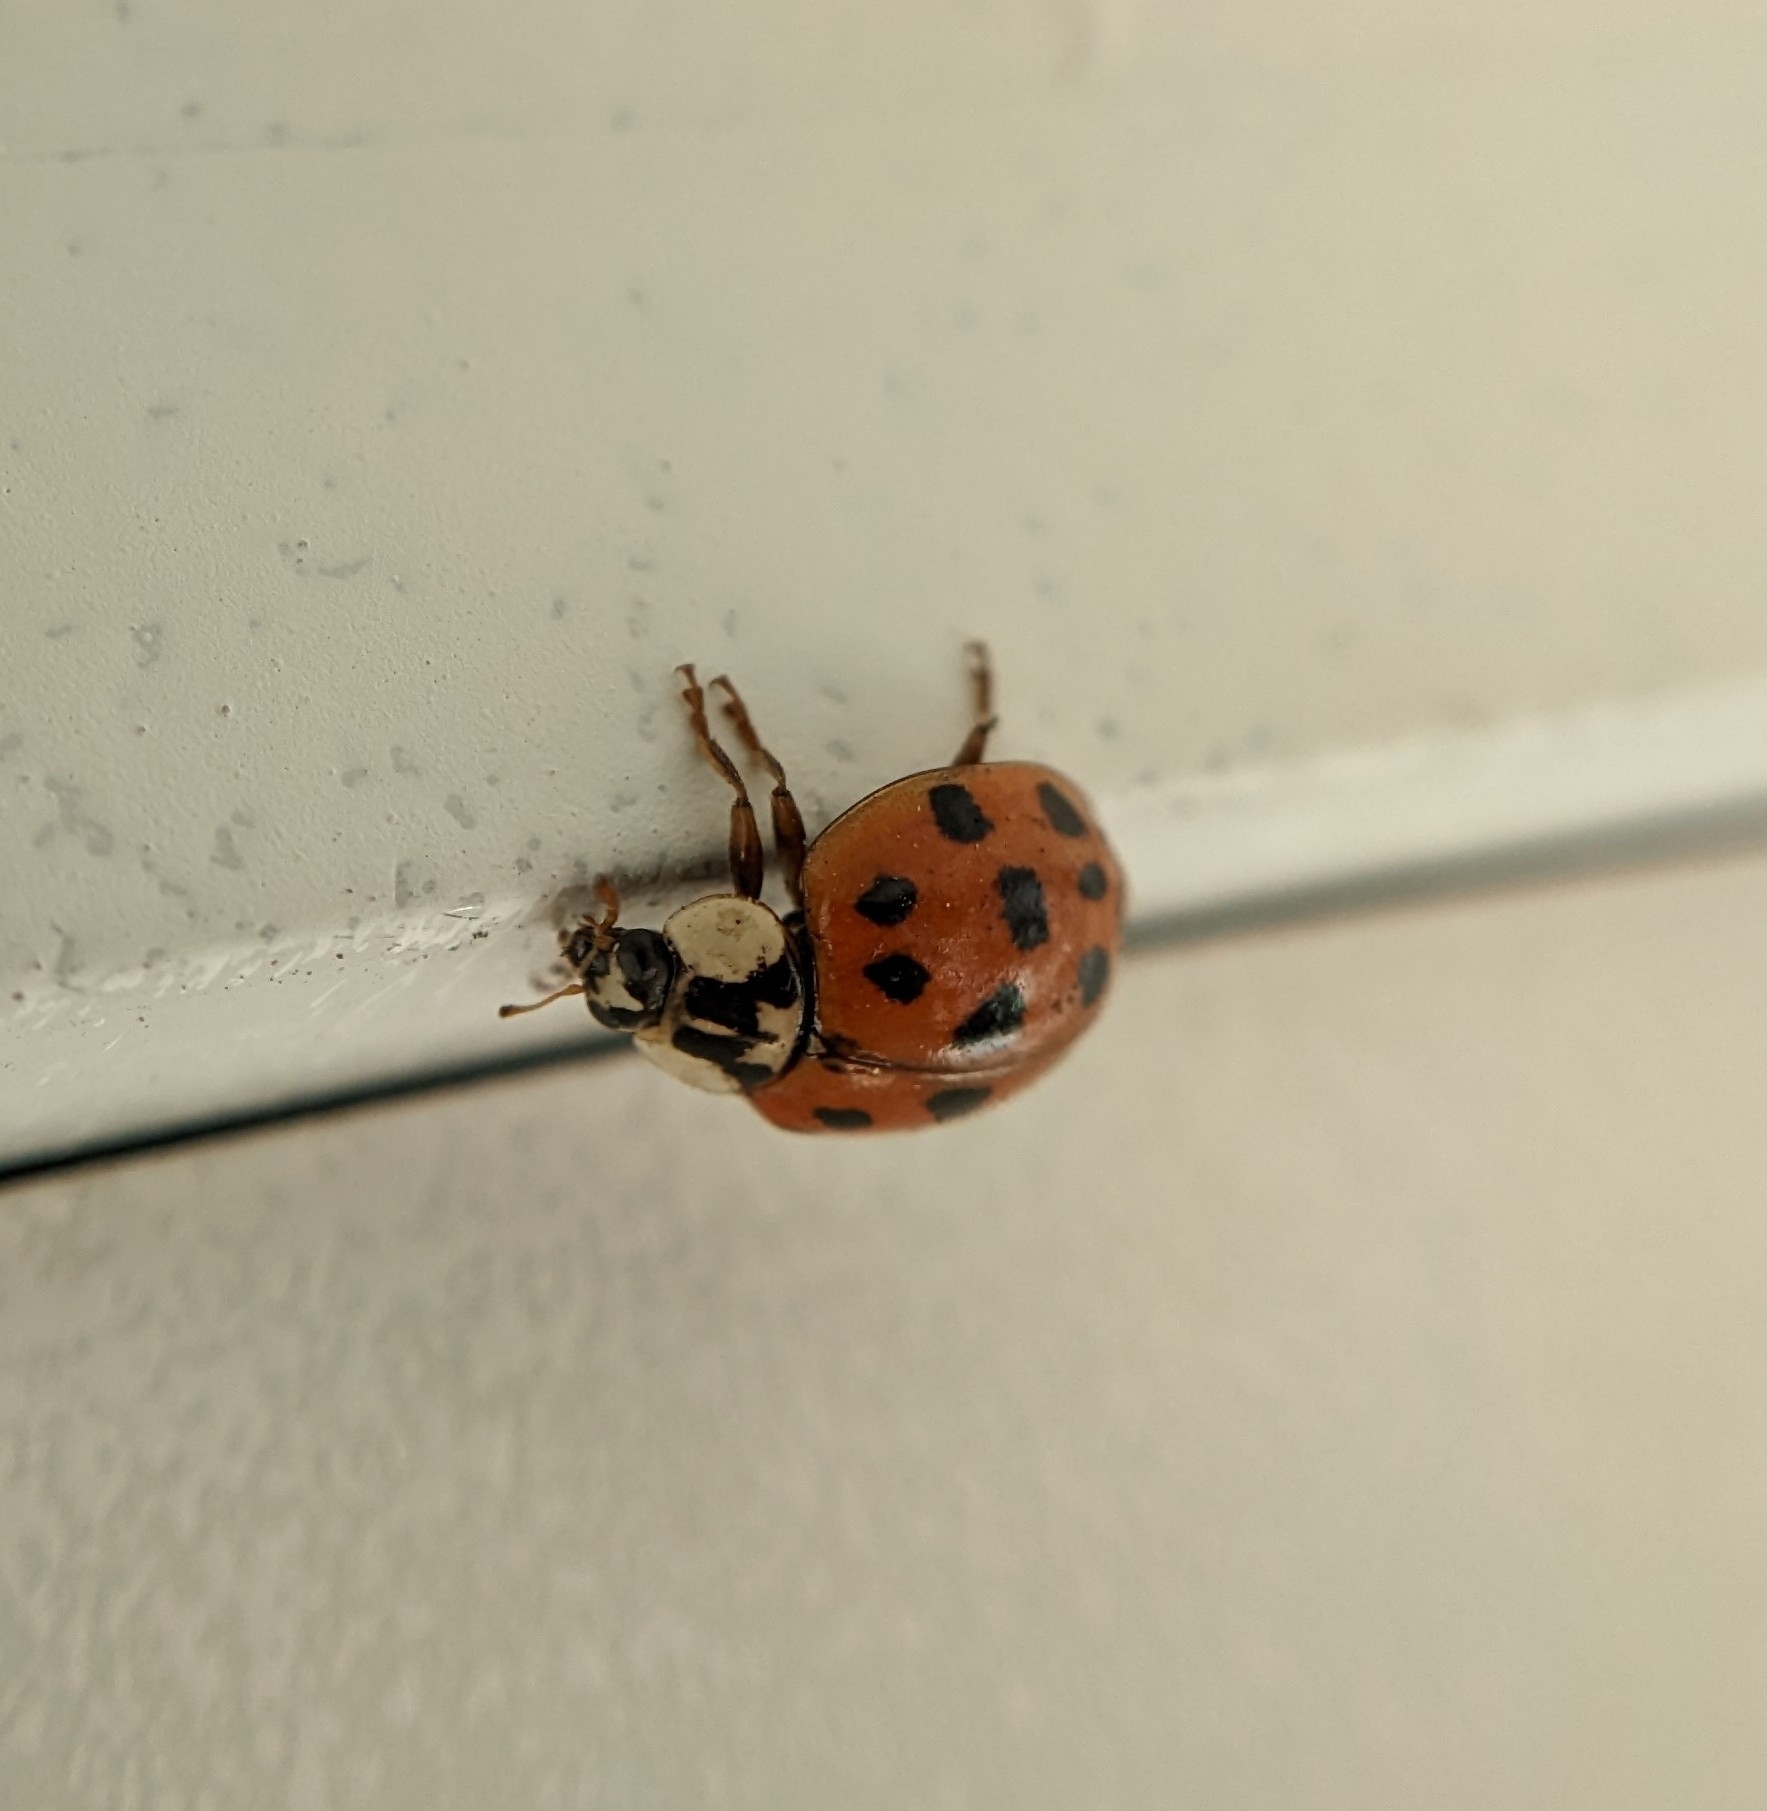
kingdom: Animalia
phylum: Arthropoda
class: Insecta
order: Coleoptera
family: Coccinellidae
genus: Harmonia
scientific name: Harmonia axyridis
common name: Harlequin ladybird
